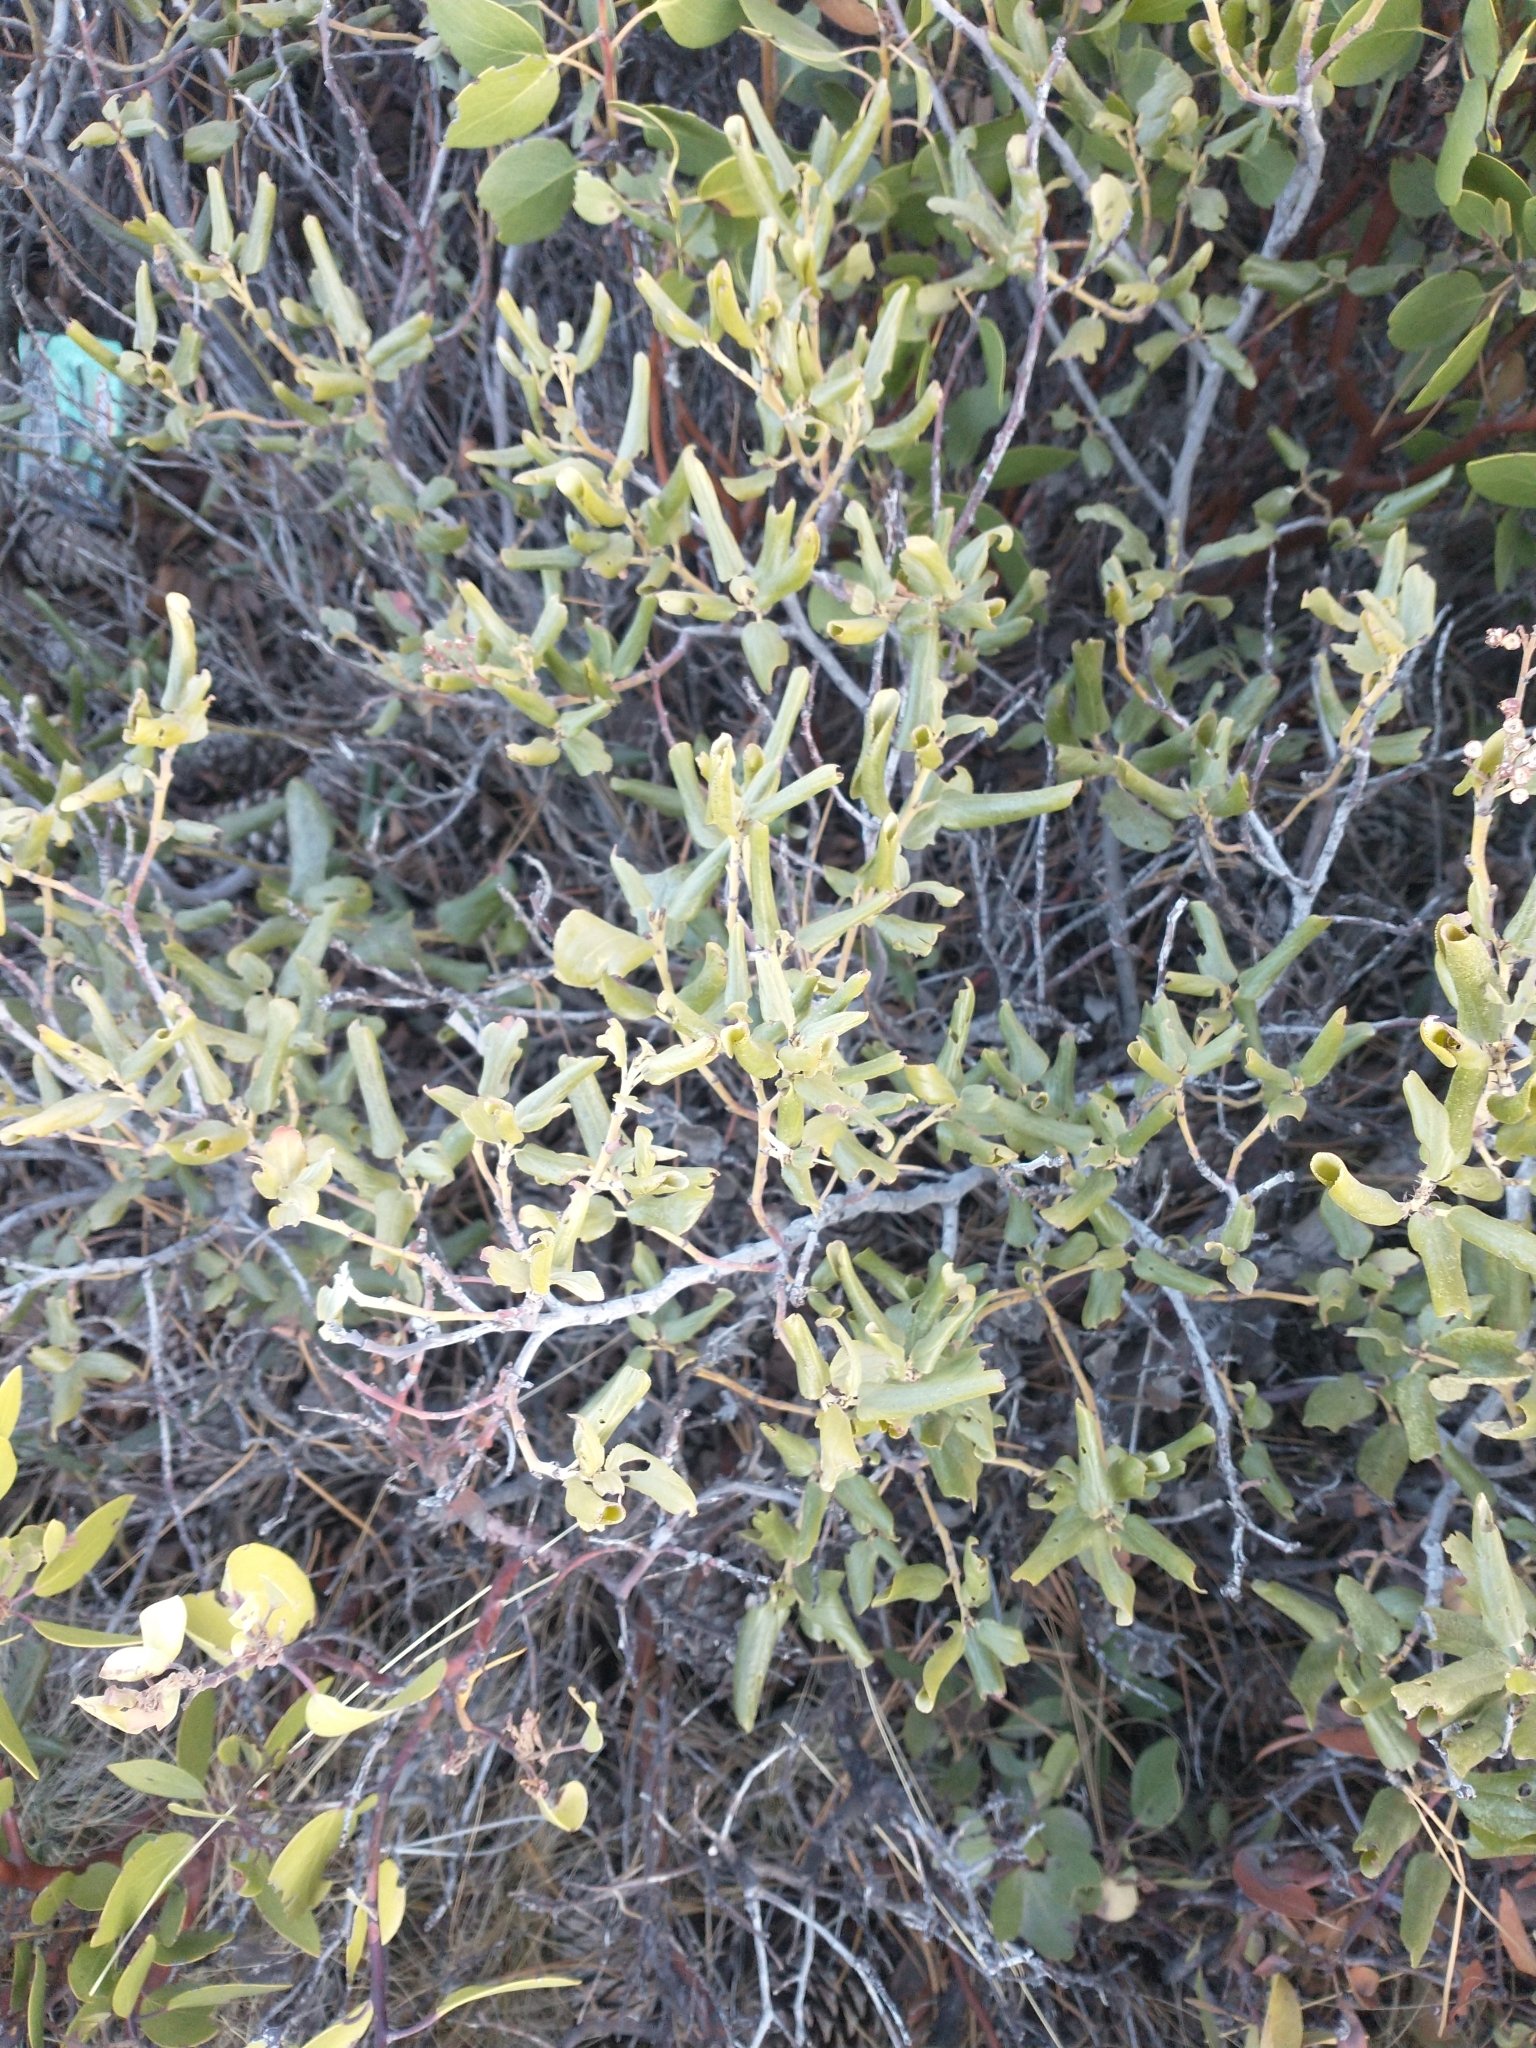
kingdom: Plantae
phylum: Tracheophyta
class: Magnoliopsida
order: Rosales
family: Rhamnaceae
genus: Ceanothus
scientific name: Ceanothus velutinus
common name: Snowbrush
